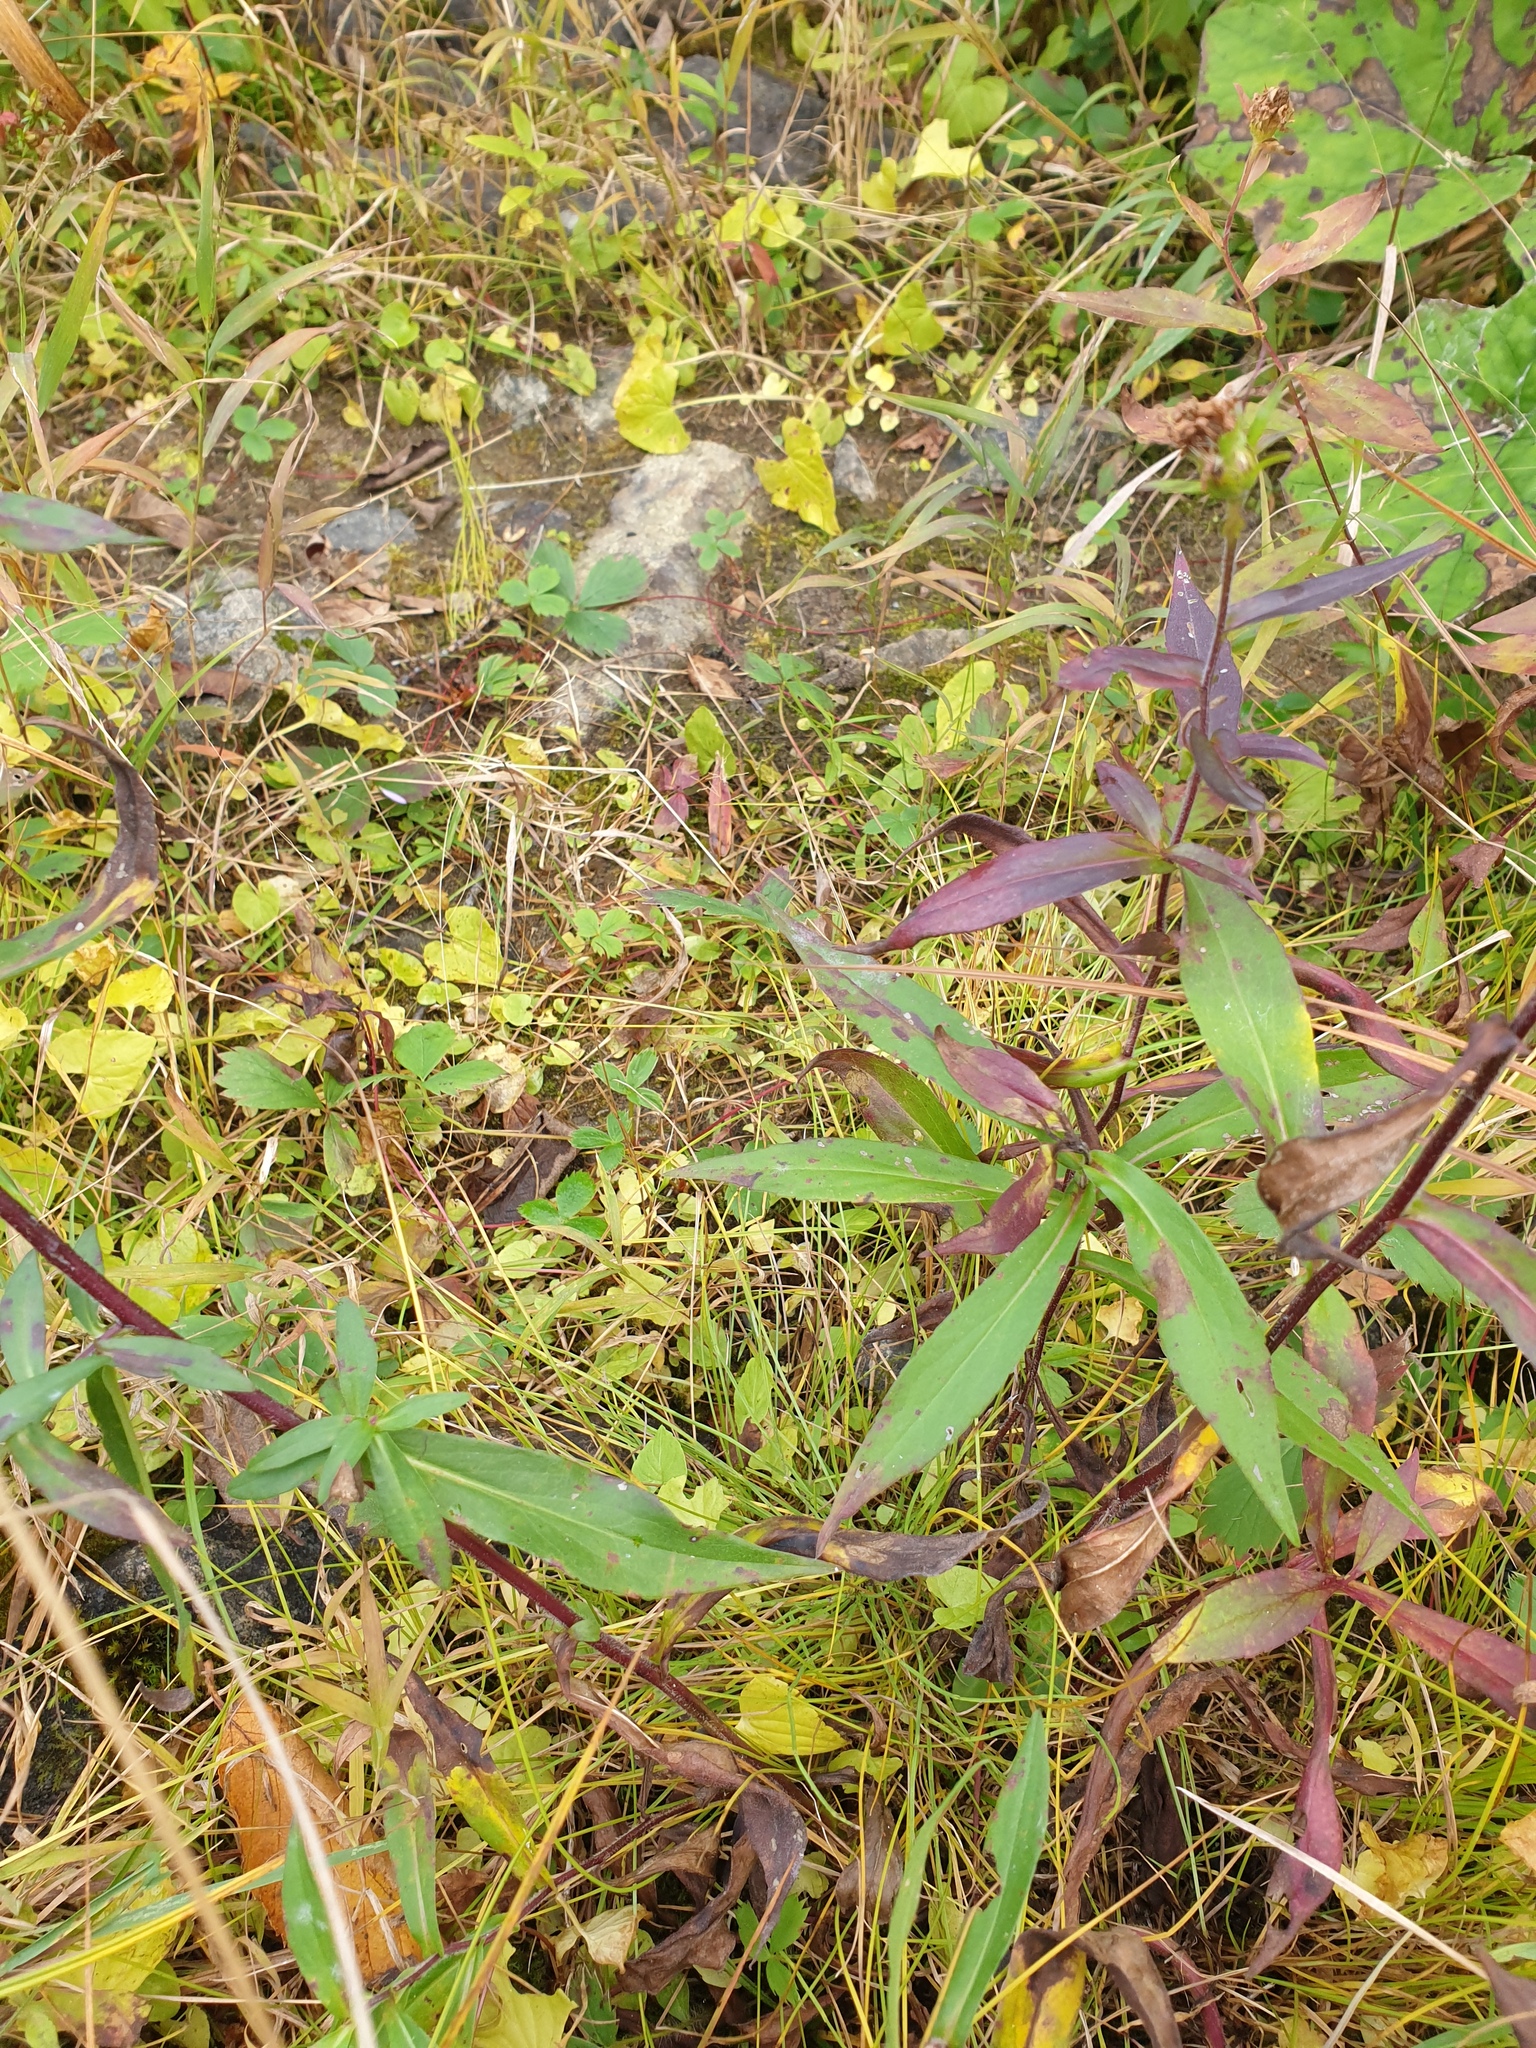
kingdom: Plantae
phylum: Tracheophyta
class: Magnoliopsida
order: Asterales
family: Asteraceae
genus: Symphyotrichum
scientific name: Symphyotrichum novi-belgii
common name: Michaelmas daisy
